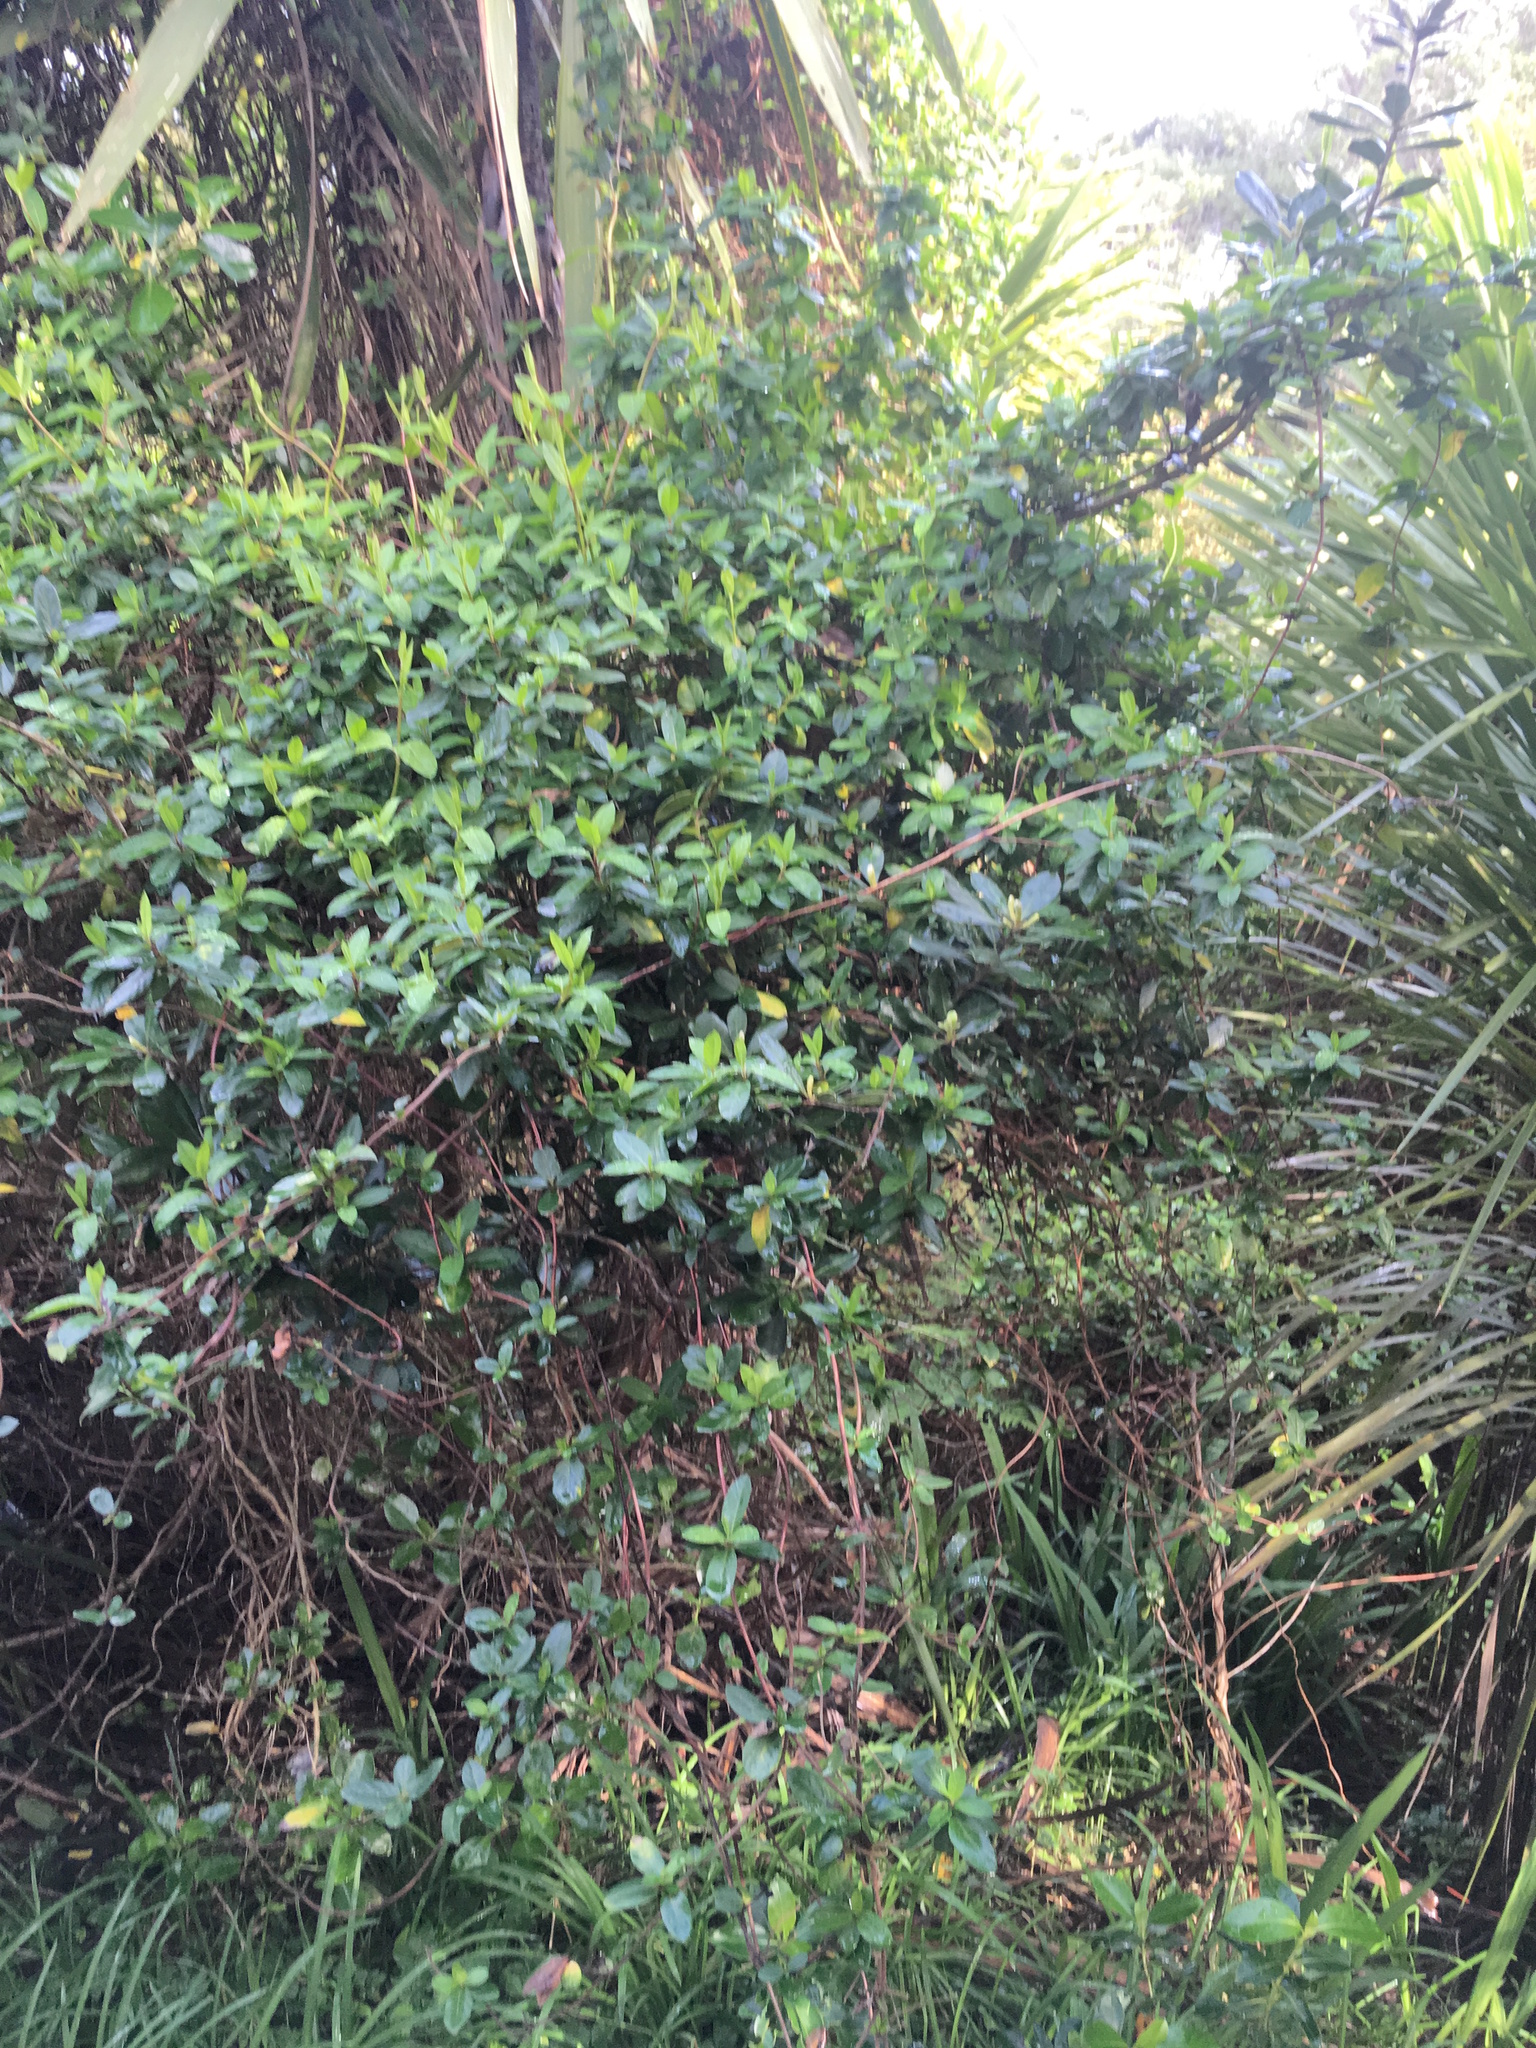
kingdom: Plantae
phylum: Tracheophyta
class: Magnoliopsida
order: Dipsacales
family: Caprifoliaceae
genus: Lonicera
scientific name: Lonicera japonica
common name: Japanese honeysuckle
